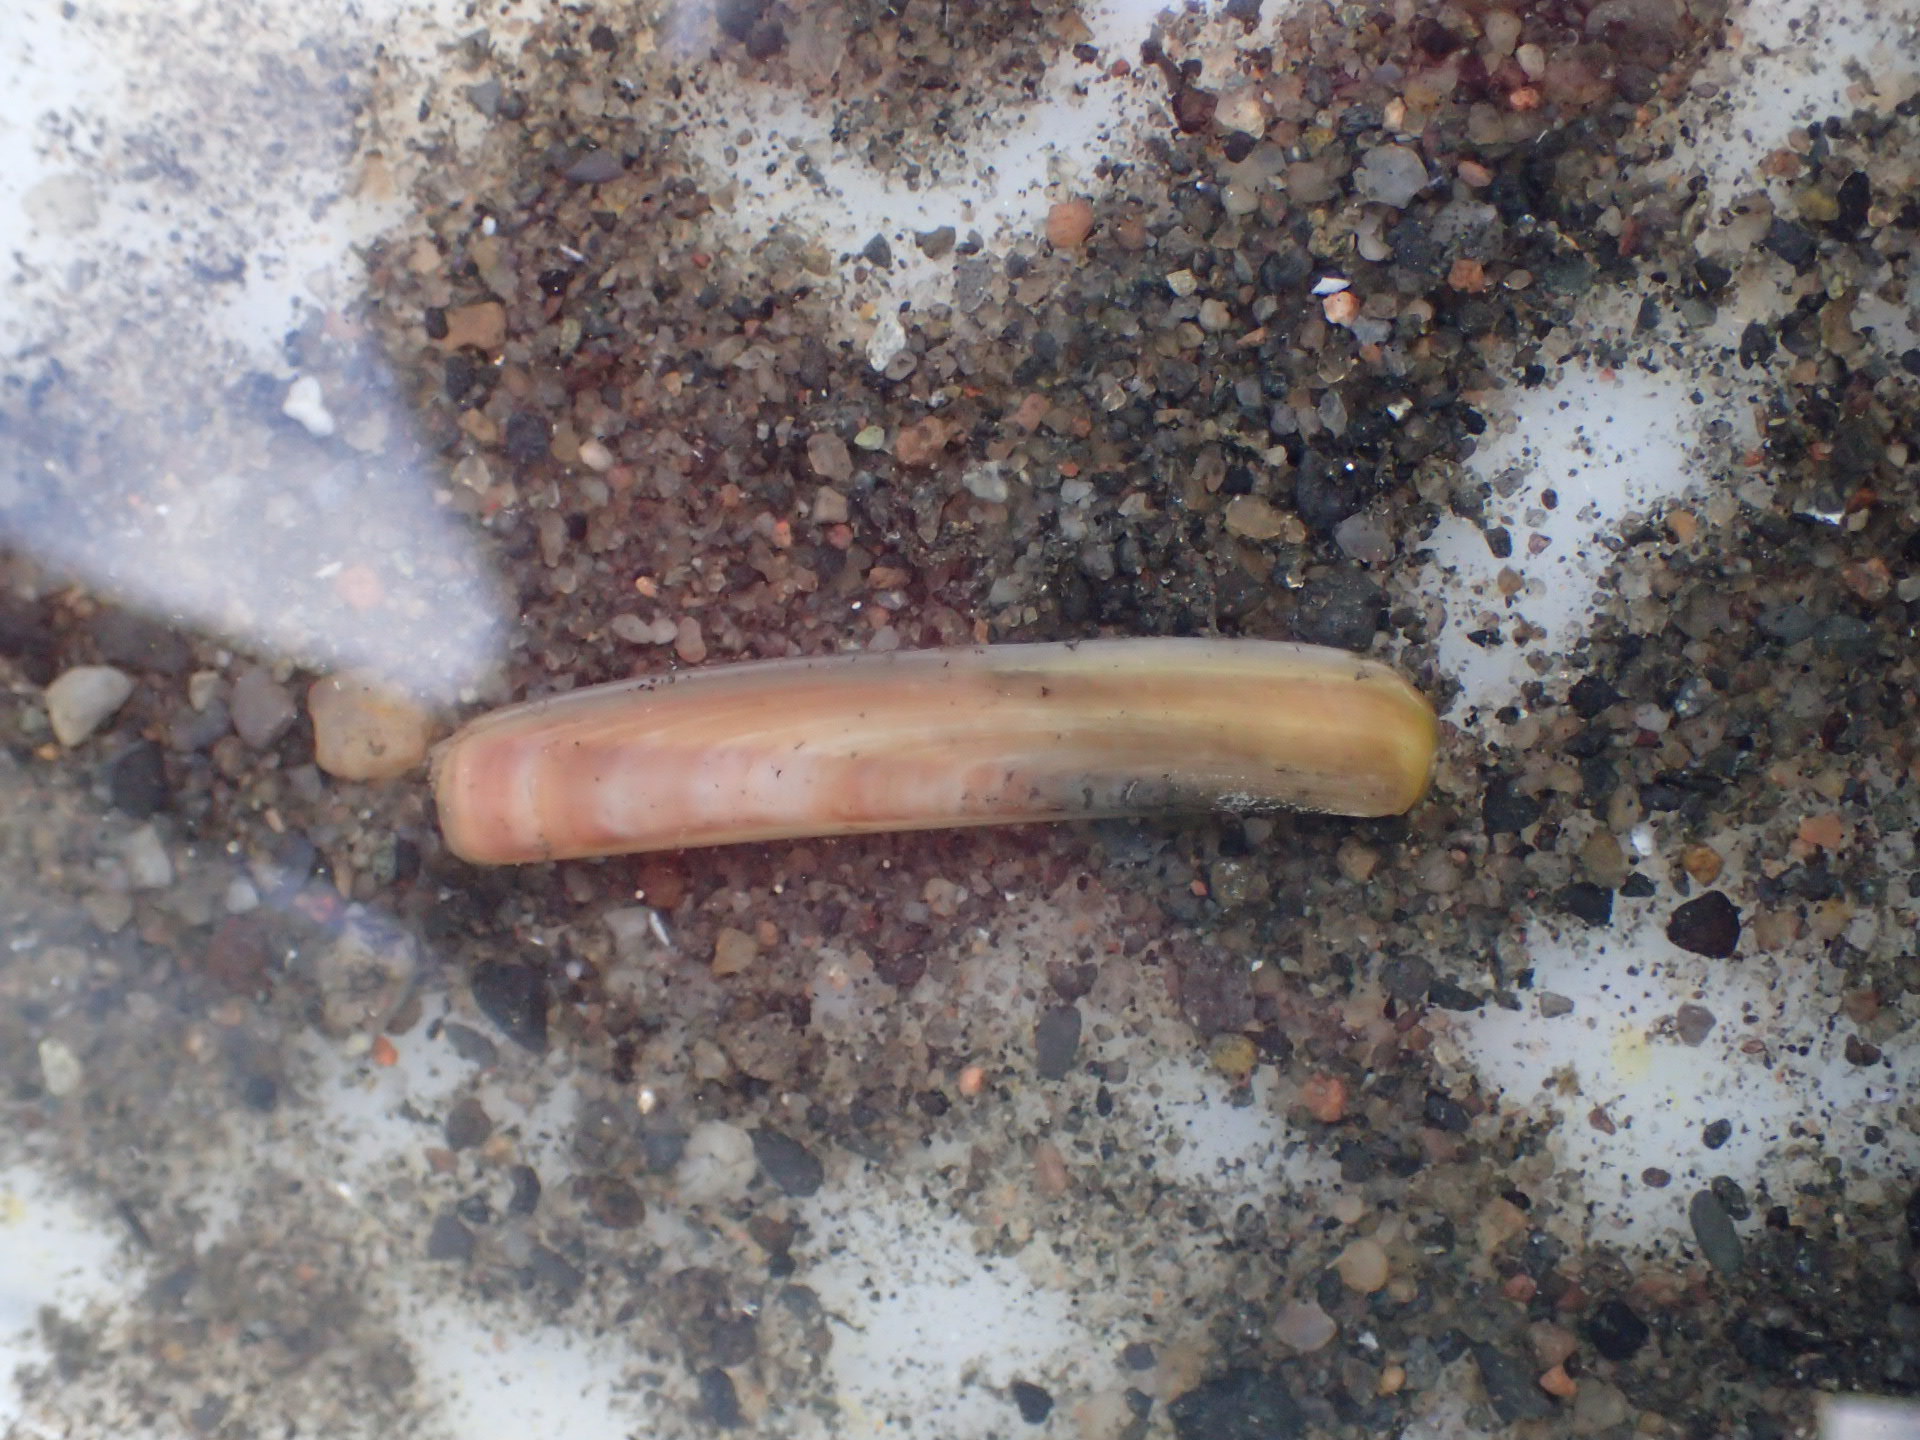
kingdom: Animalia
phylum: Mollusca
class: Bivalvia
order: Adapedonta
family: Pharidae
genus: Ensis
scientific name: Ensis leei
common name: American jack knife clam
